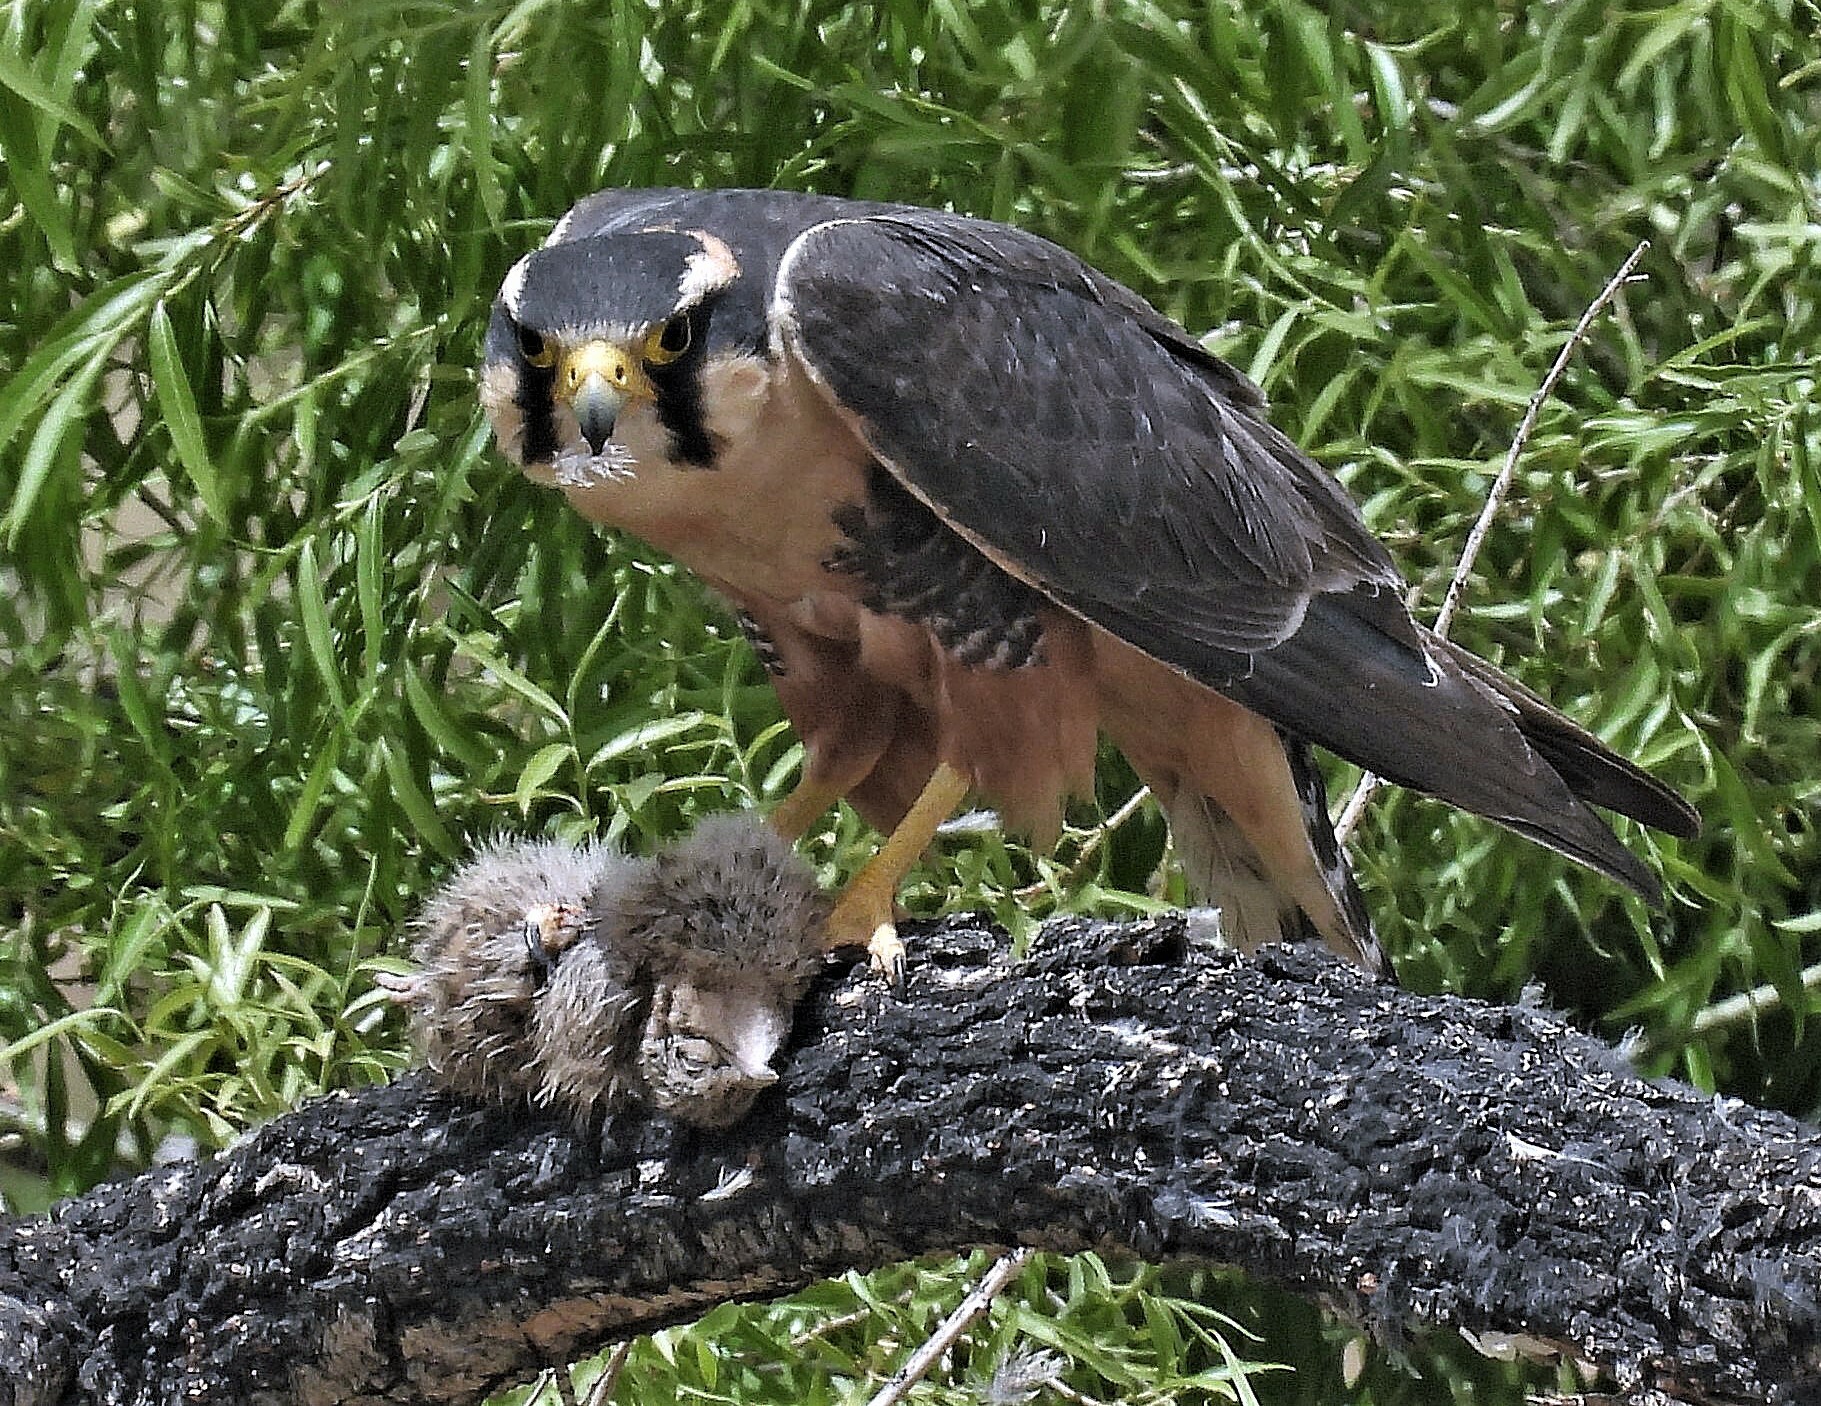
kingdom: Animalia
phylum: Chordata
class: Aves
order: Falconiformes
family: Falconidae
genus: Falco
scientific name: Falco femoralis
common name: Aplomado falcon
